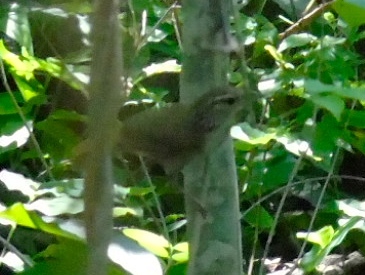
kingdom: Animalia
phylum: Chordata
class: Aves
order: Passeriformes
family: Troglodytidae
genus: Thryophilus
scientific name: Thryophilus sinaloa
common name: Sinaloa wren
